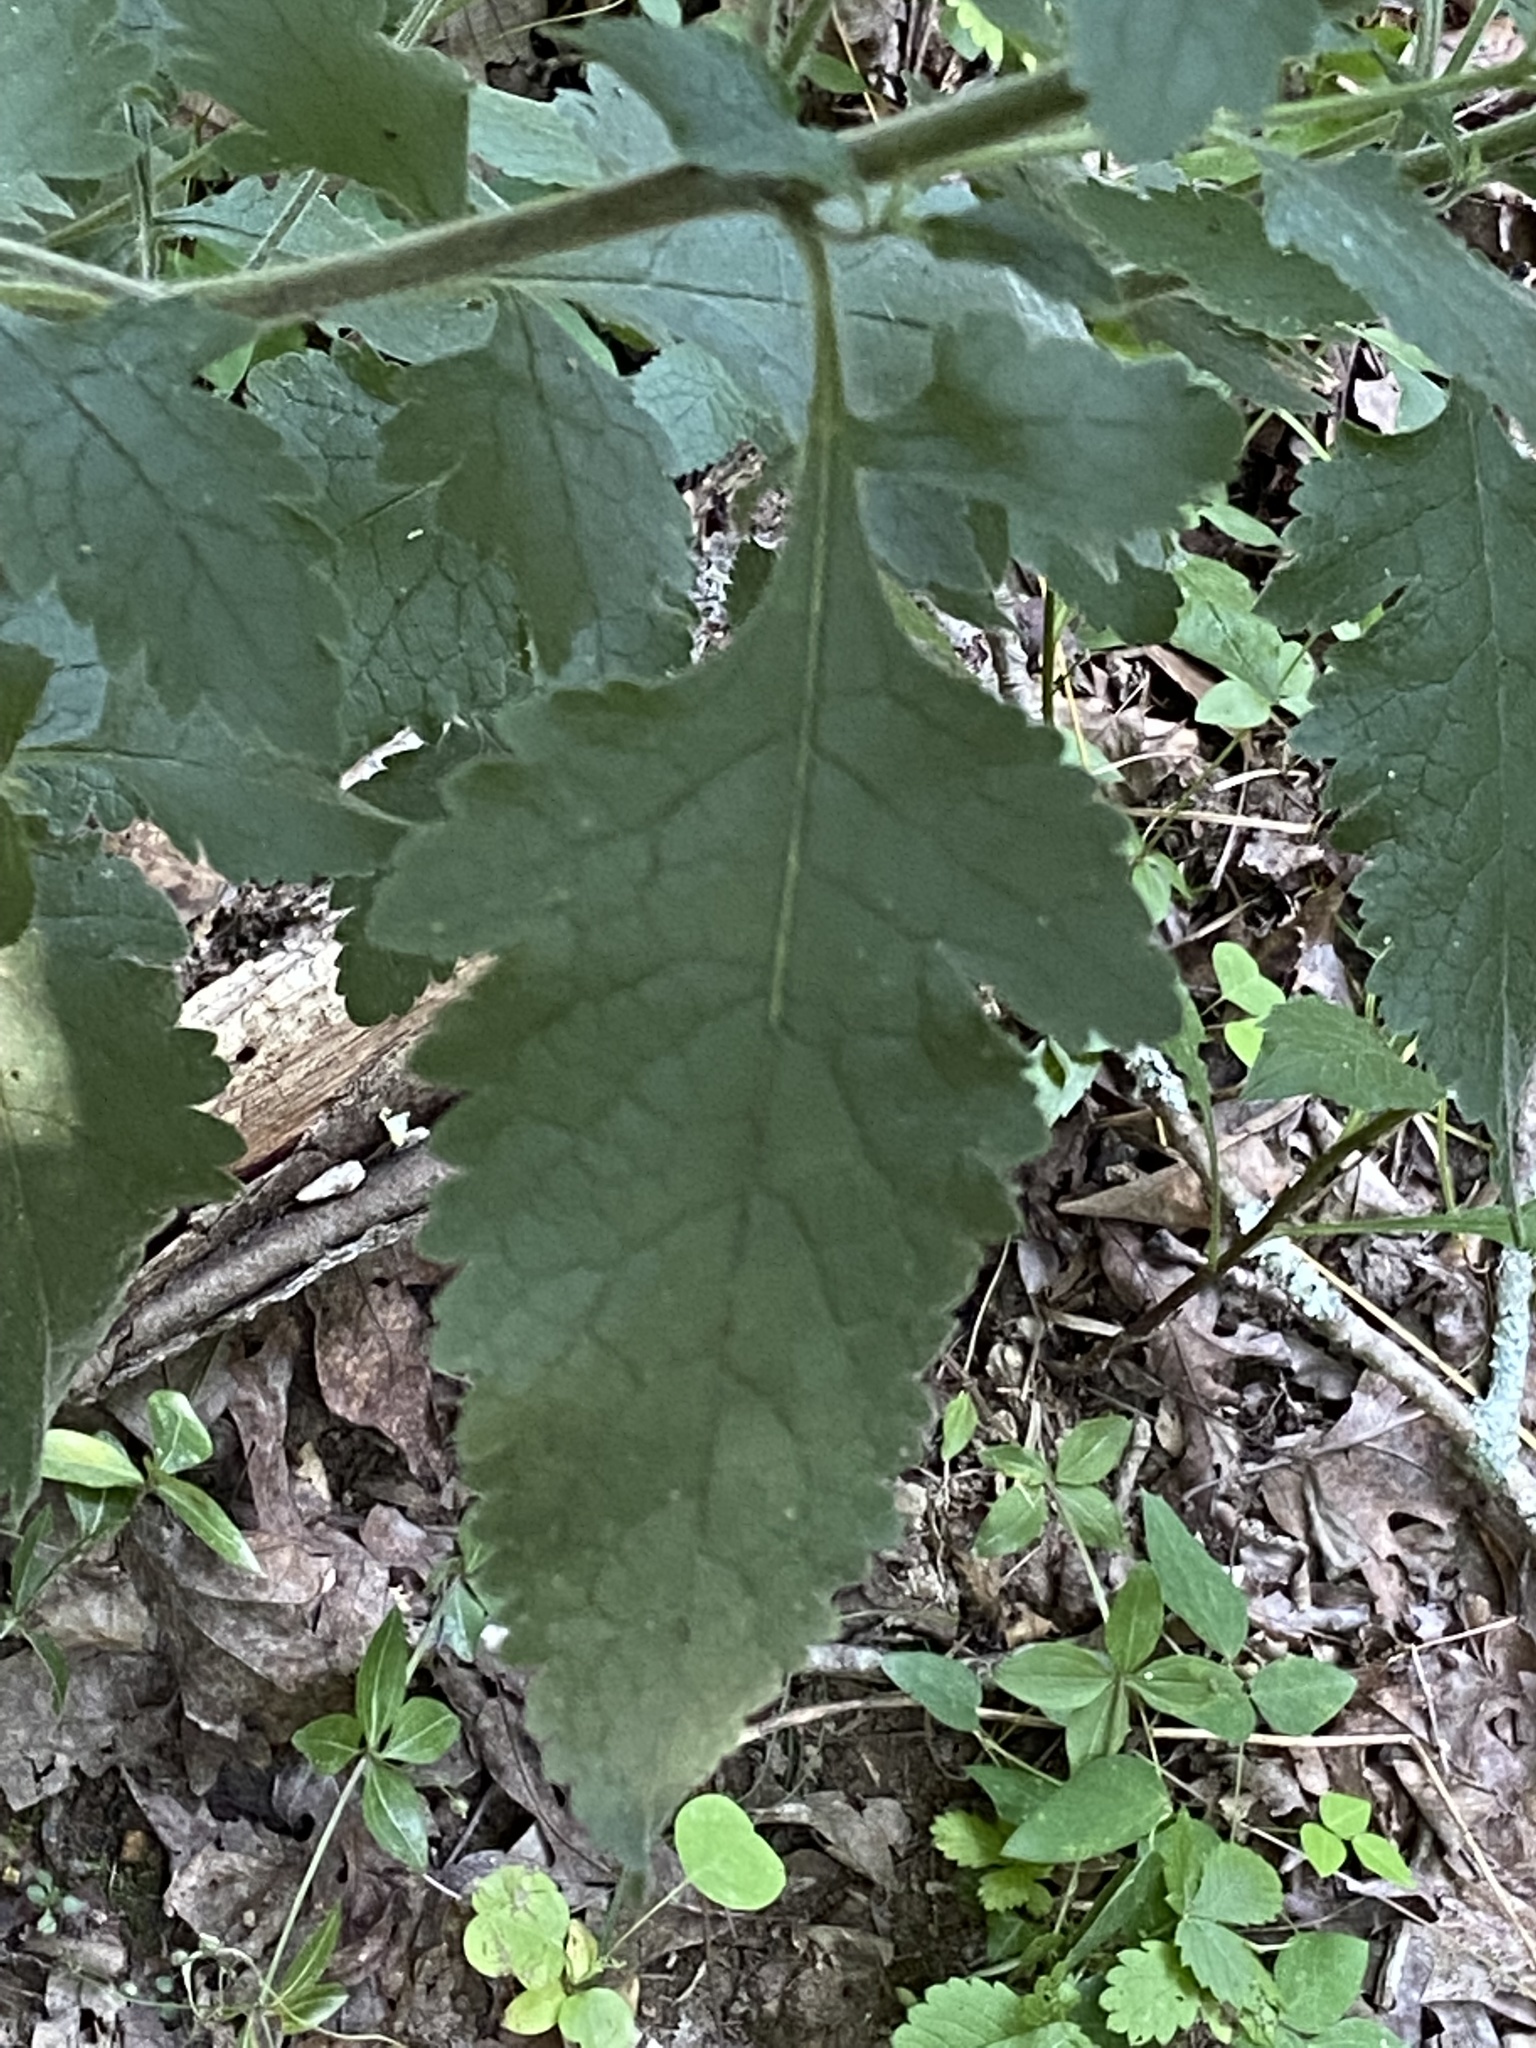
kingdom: Plantae
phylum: Tracheophyta
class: Magnoliopsida
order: Lamiales
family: Orobanchaceae
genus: Dasistoma
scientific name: Dasistoma macrophyllum
